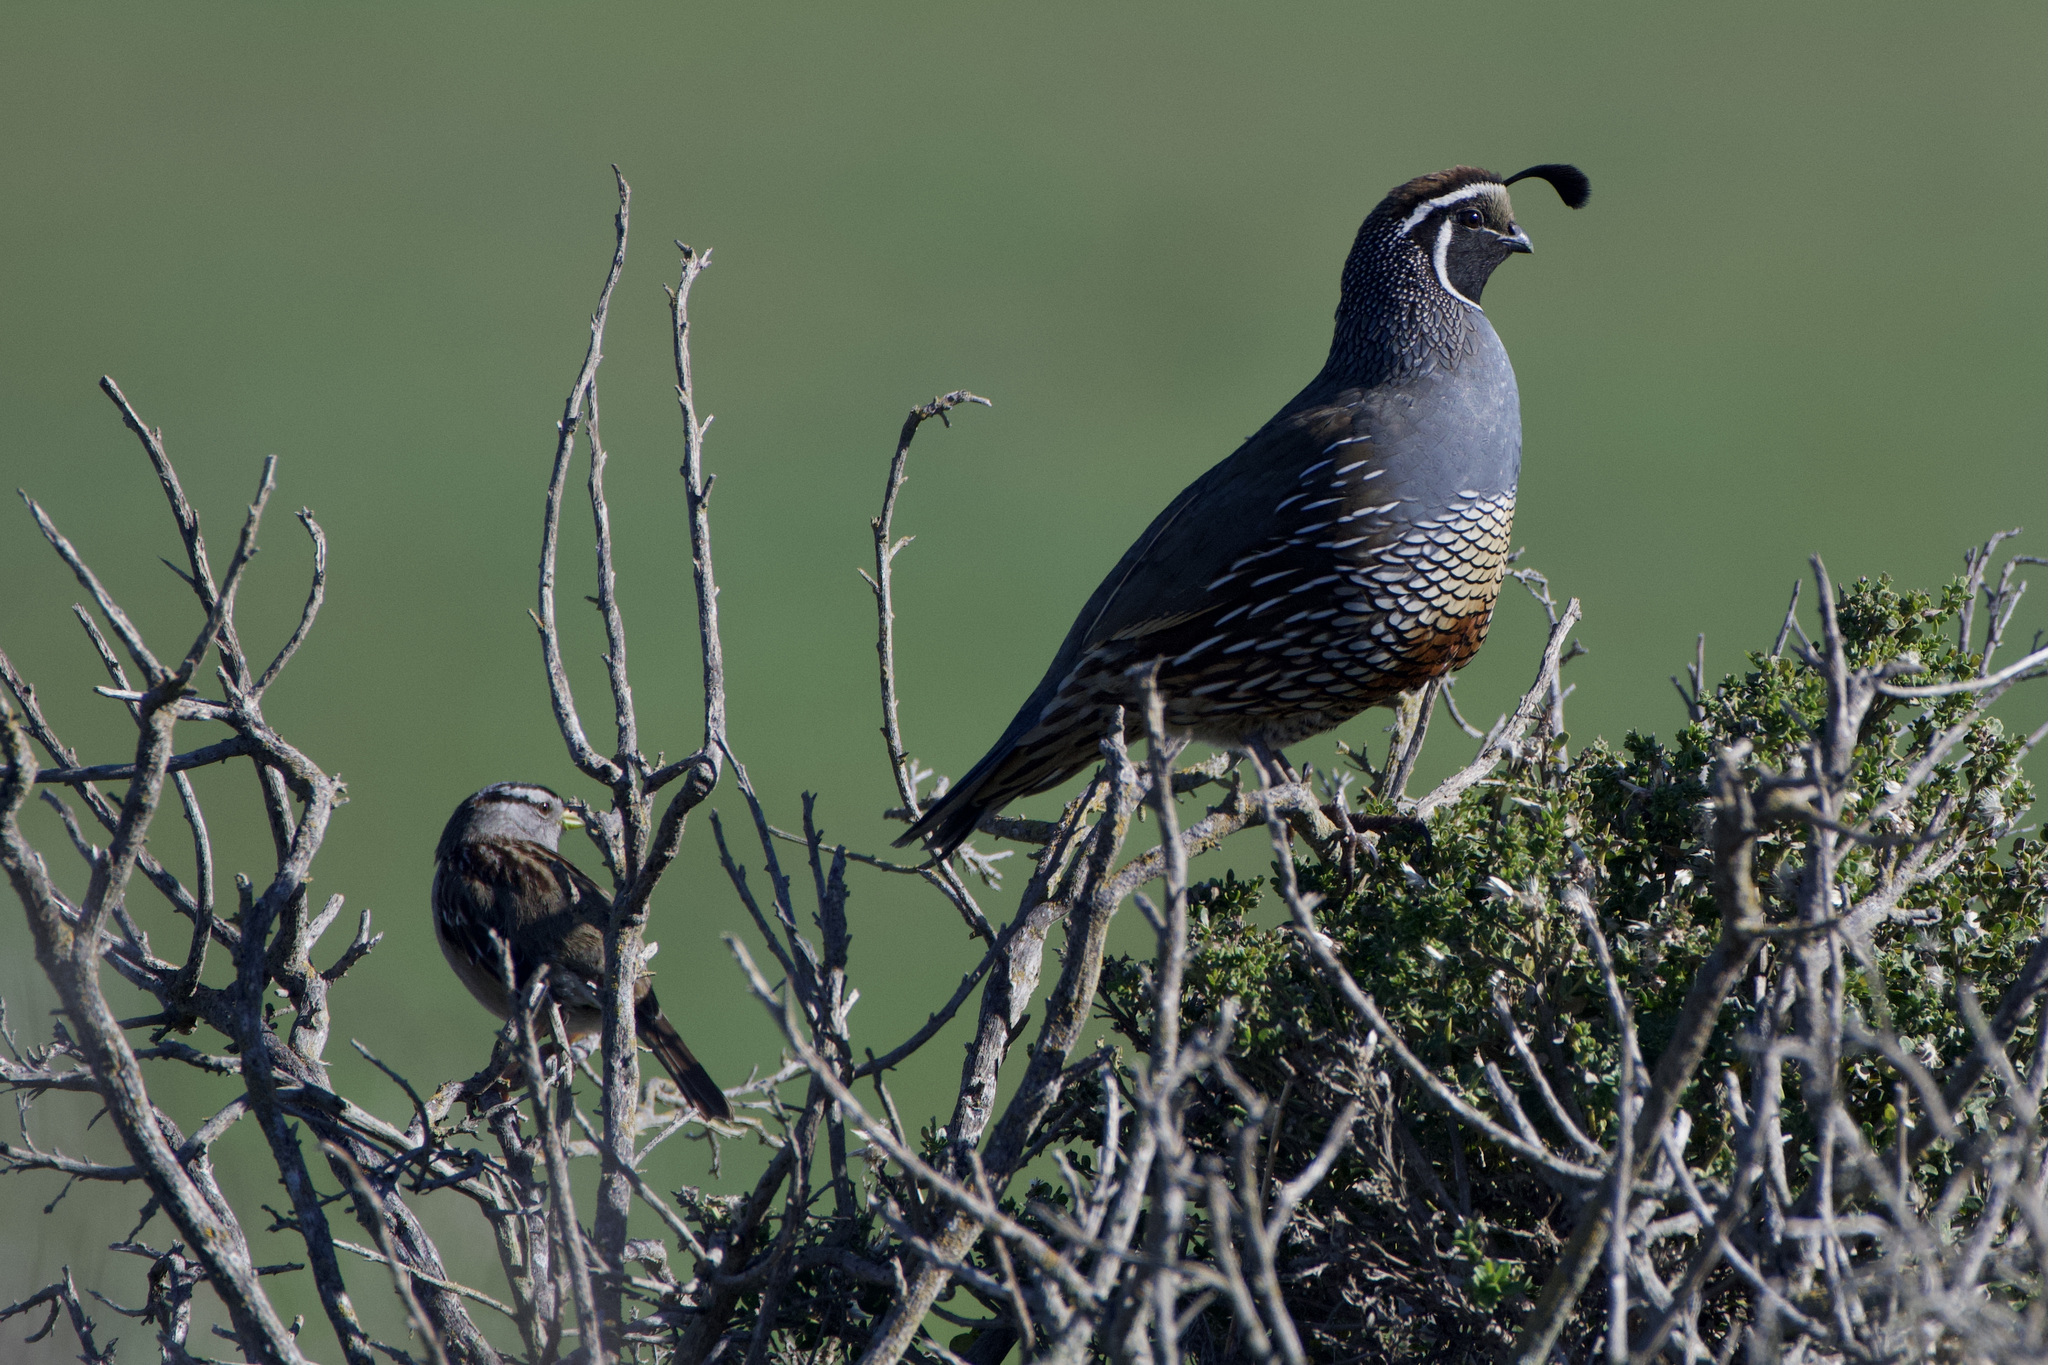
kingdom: Animalia
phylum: Chordata
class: Aves
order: Galliformes
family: Odontophoridae
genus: Callipepla
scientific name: Callipepla californica
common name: California quail
